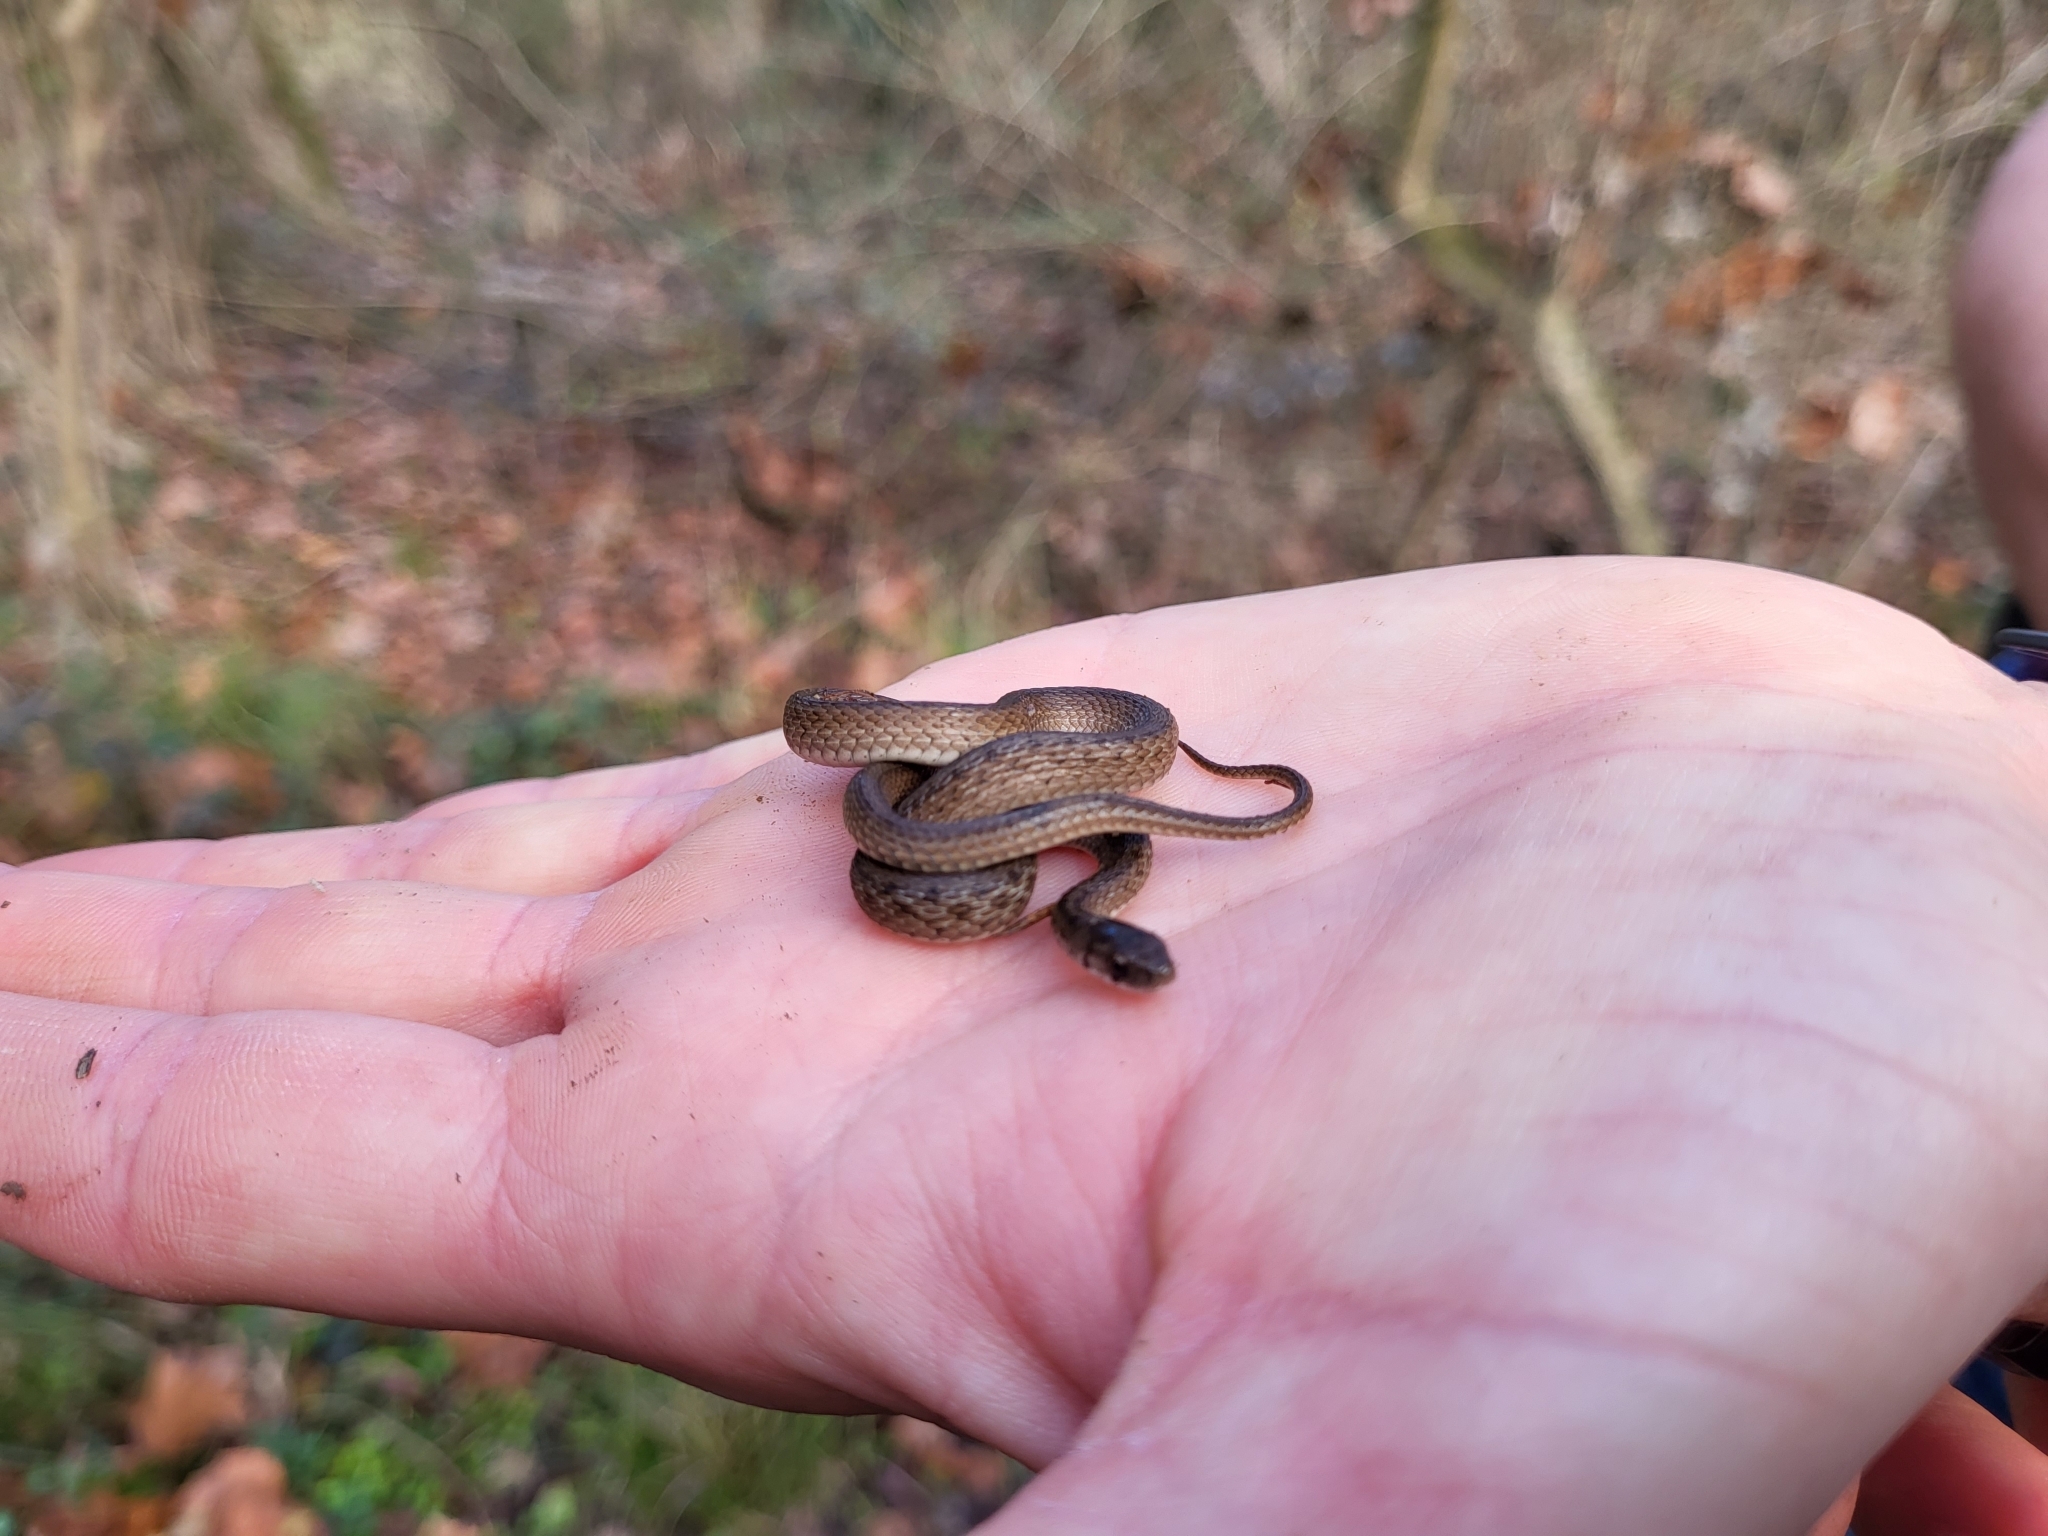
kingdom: Animalia
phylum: Chordata
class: Squamata
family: Colubridae
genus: Storeria
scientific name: Storeria dekayi
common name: (dekay’s) brown snake
